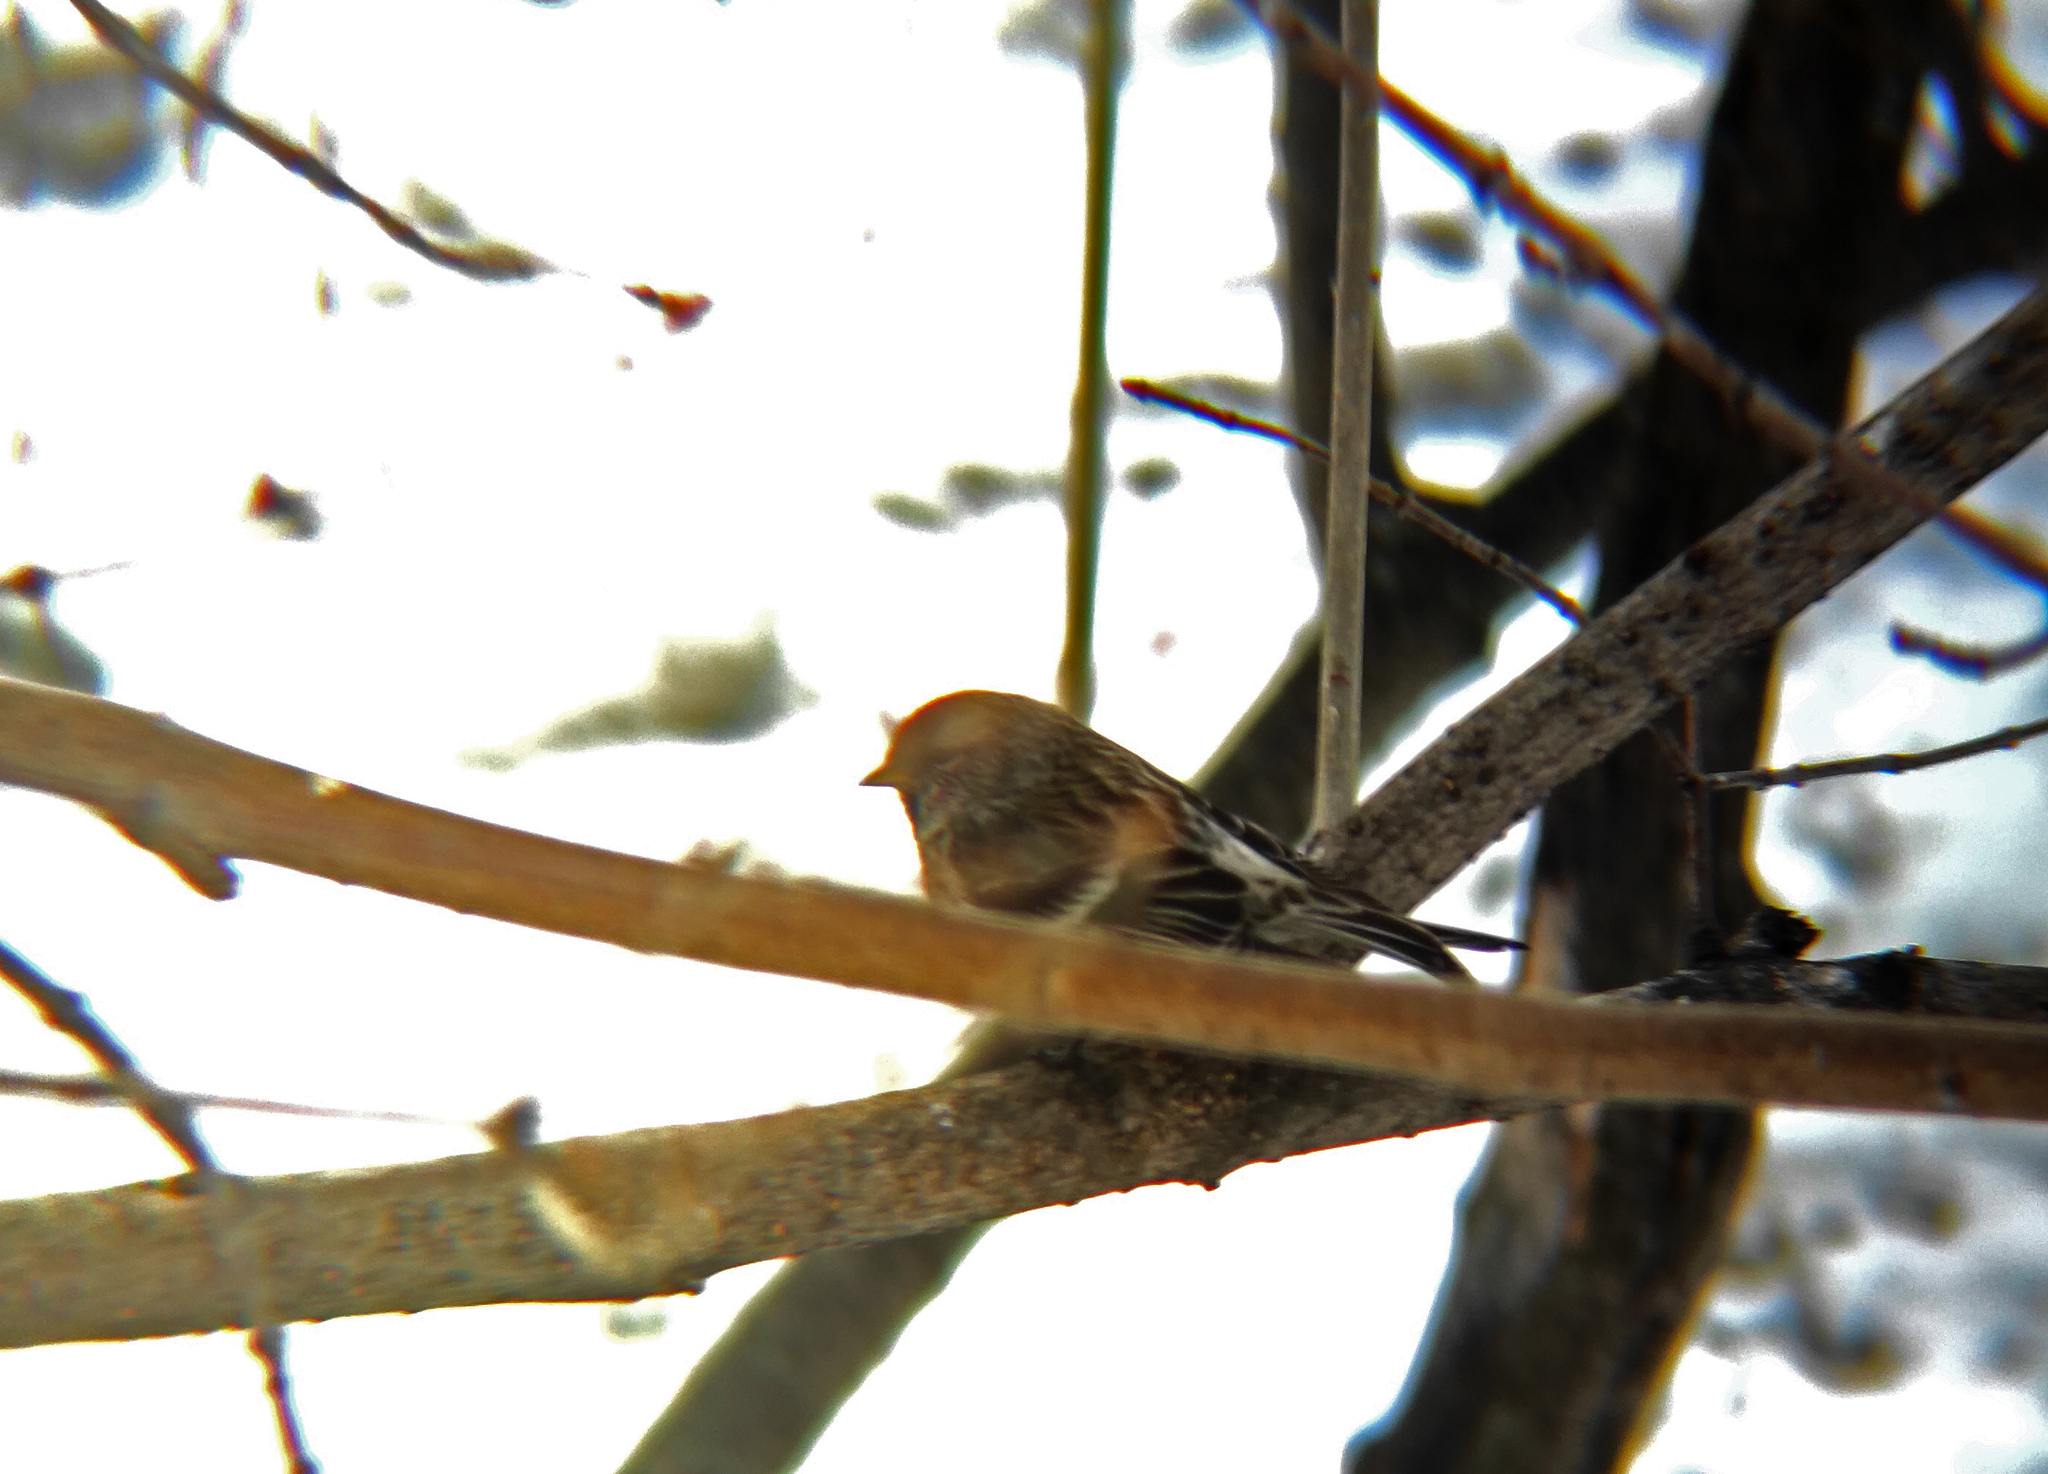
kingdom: Animalia
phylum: Chordata
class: Aves
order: Passeriformes
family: Fringillidae
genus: Acanthis
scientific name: Acanthis flammea
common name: Common redpoll
